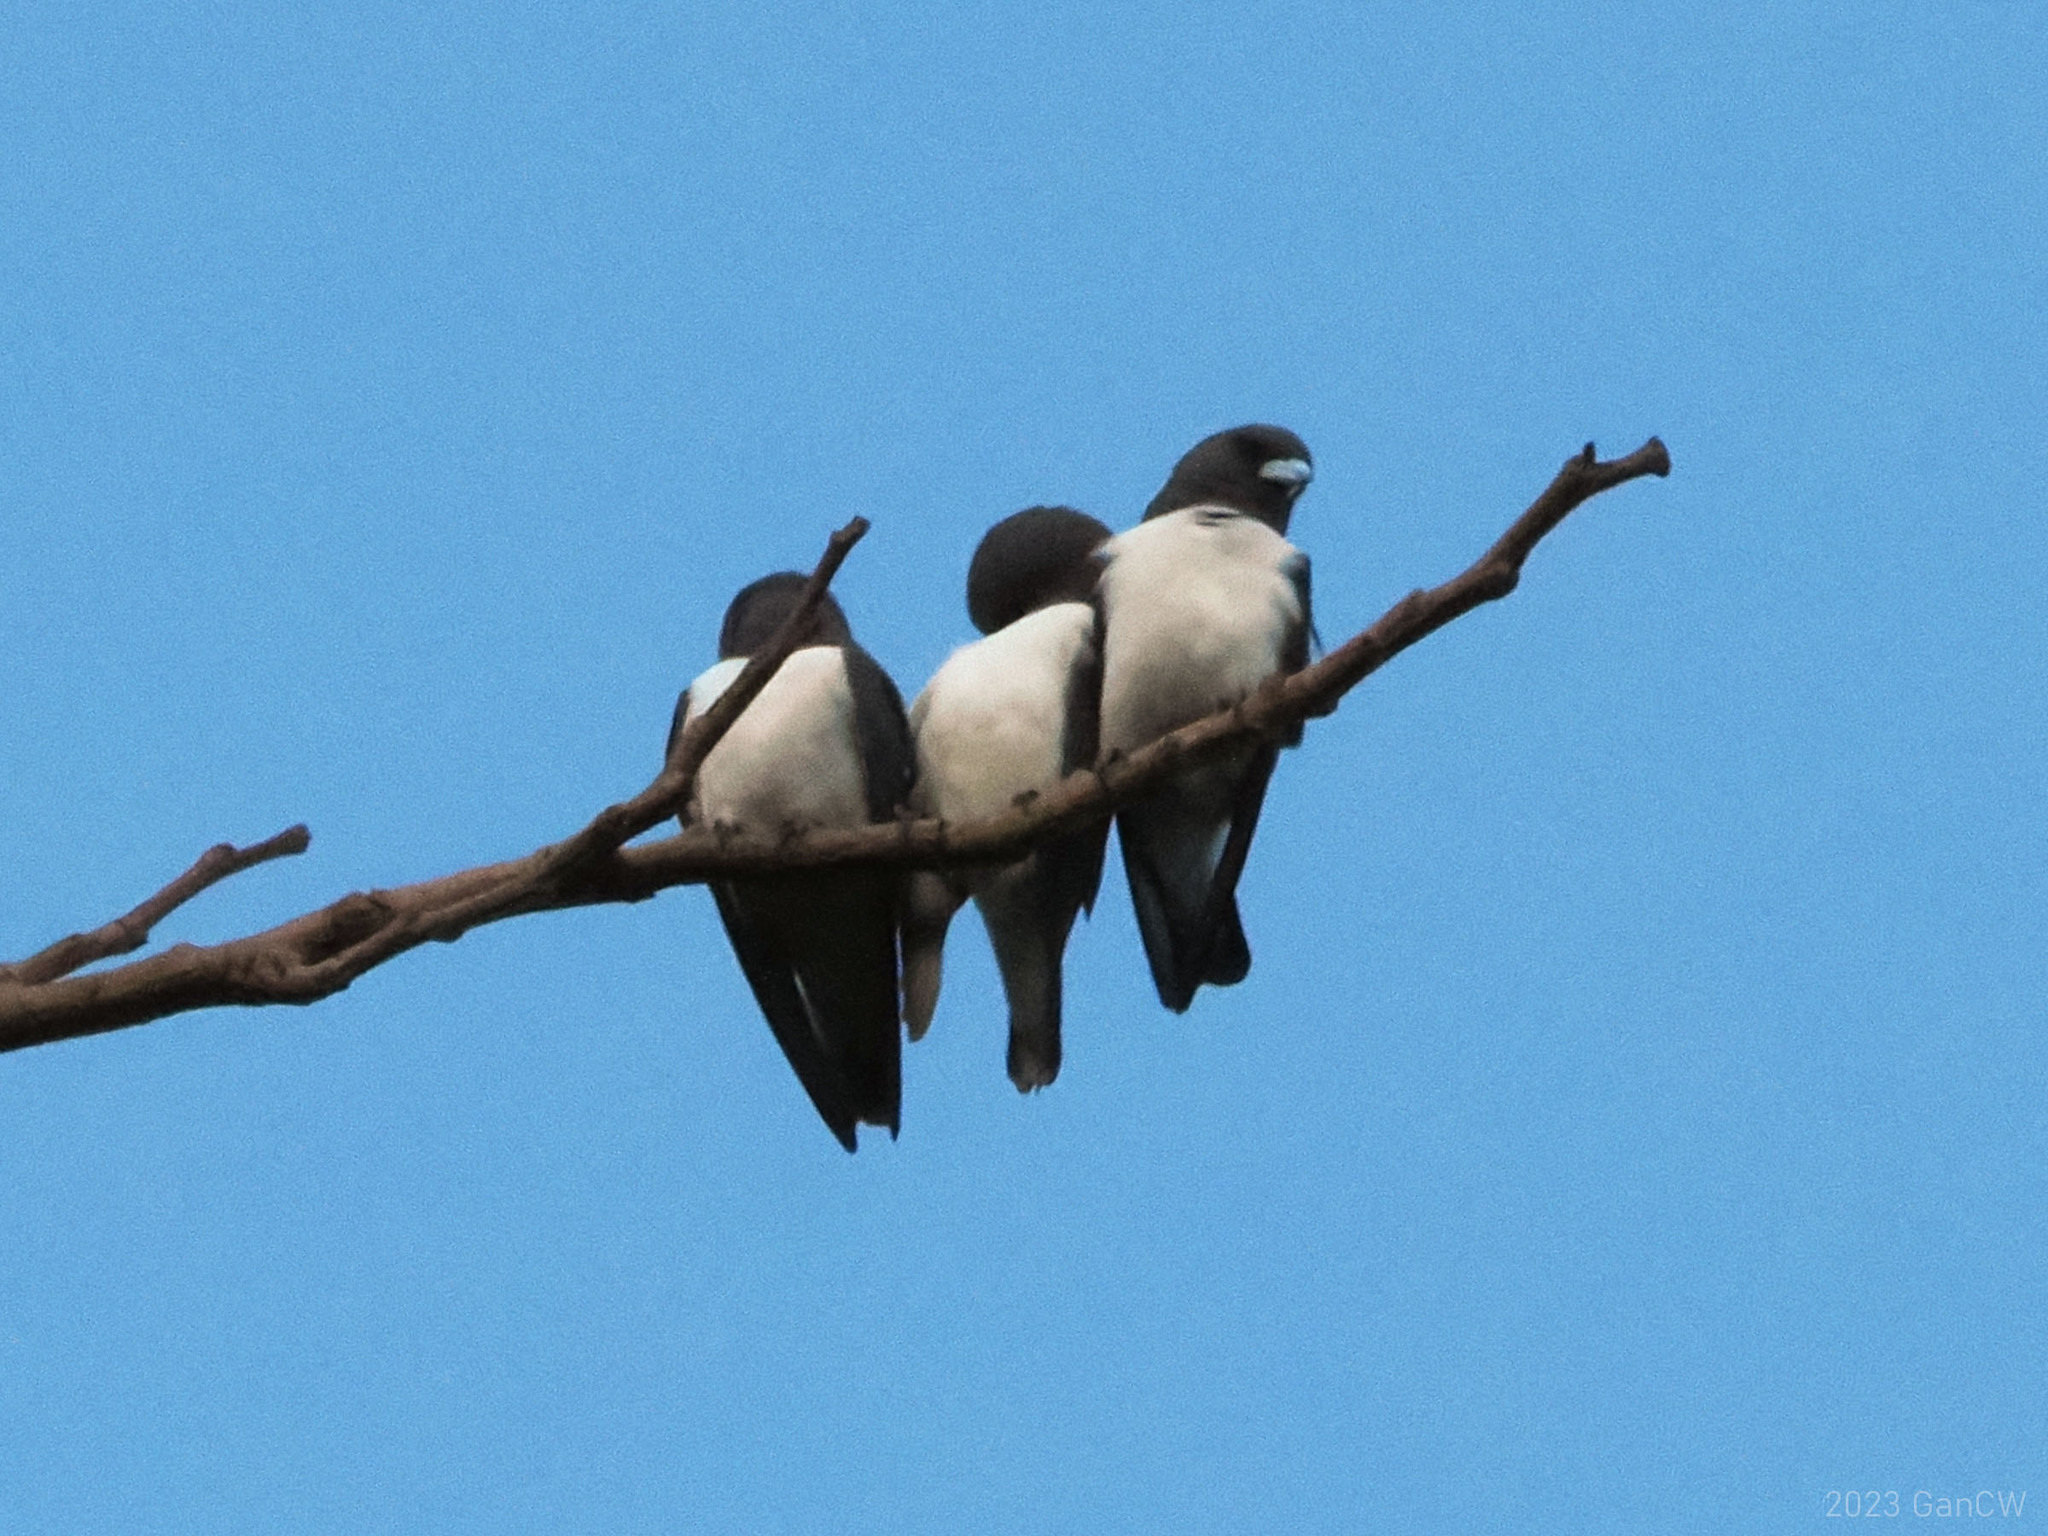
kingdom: Animalia
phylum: Chordata
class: Aves
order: Passeriformes
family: Artamidae
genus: Artamus
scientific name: Artamus leucoryn
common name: White-breasted woodswallow
